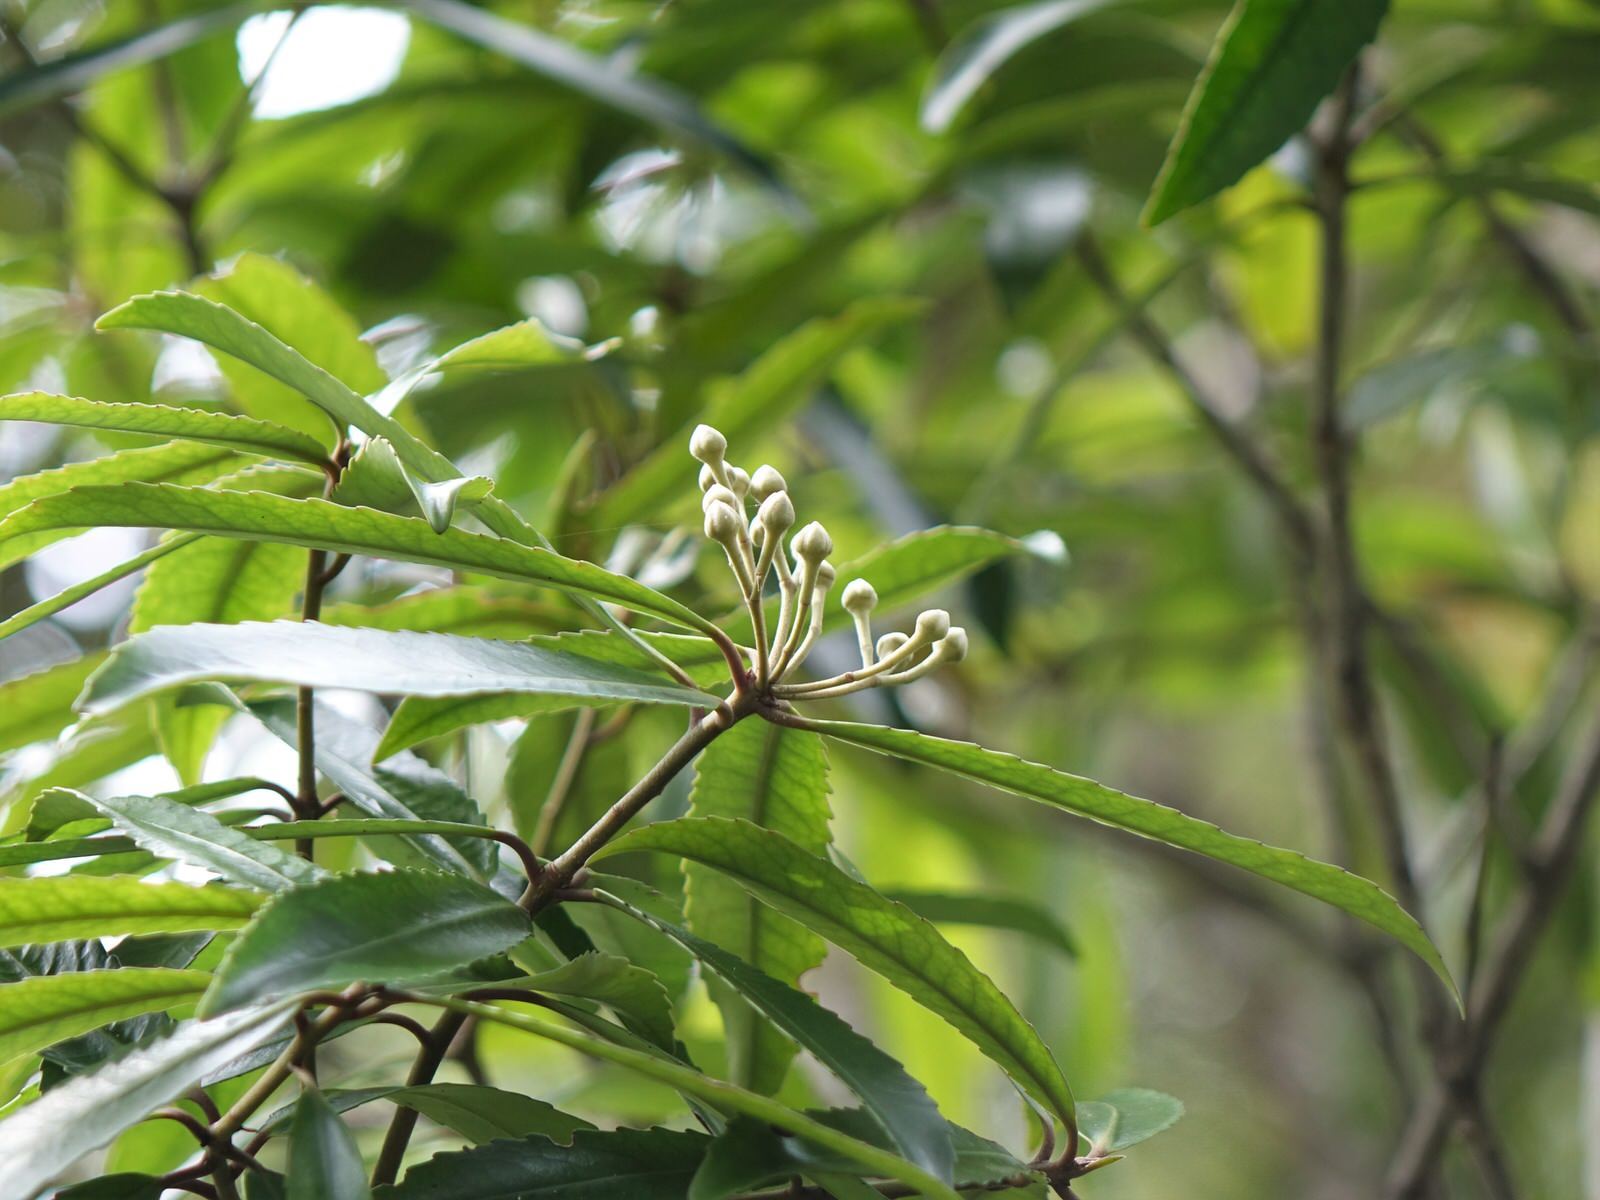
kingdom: Plantae
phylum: Tracheophyta
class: Magnoliopsida
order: Crossosomatales
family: Ixerbaceae
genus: Ixerba
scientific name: Ixerba brexioides
